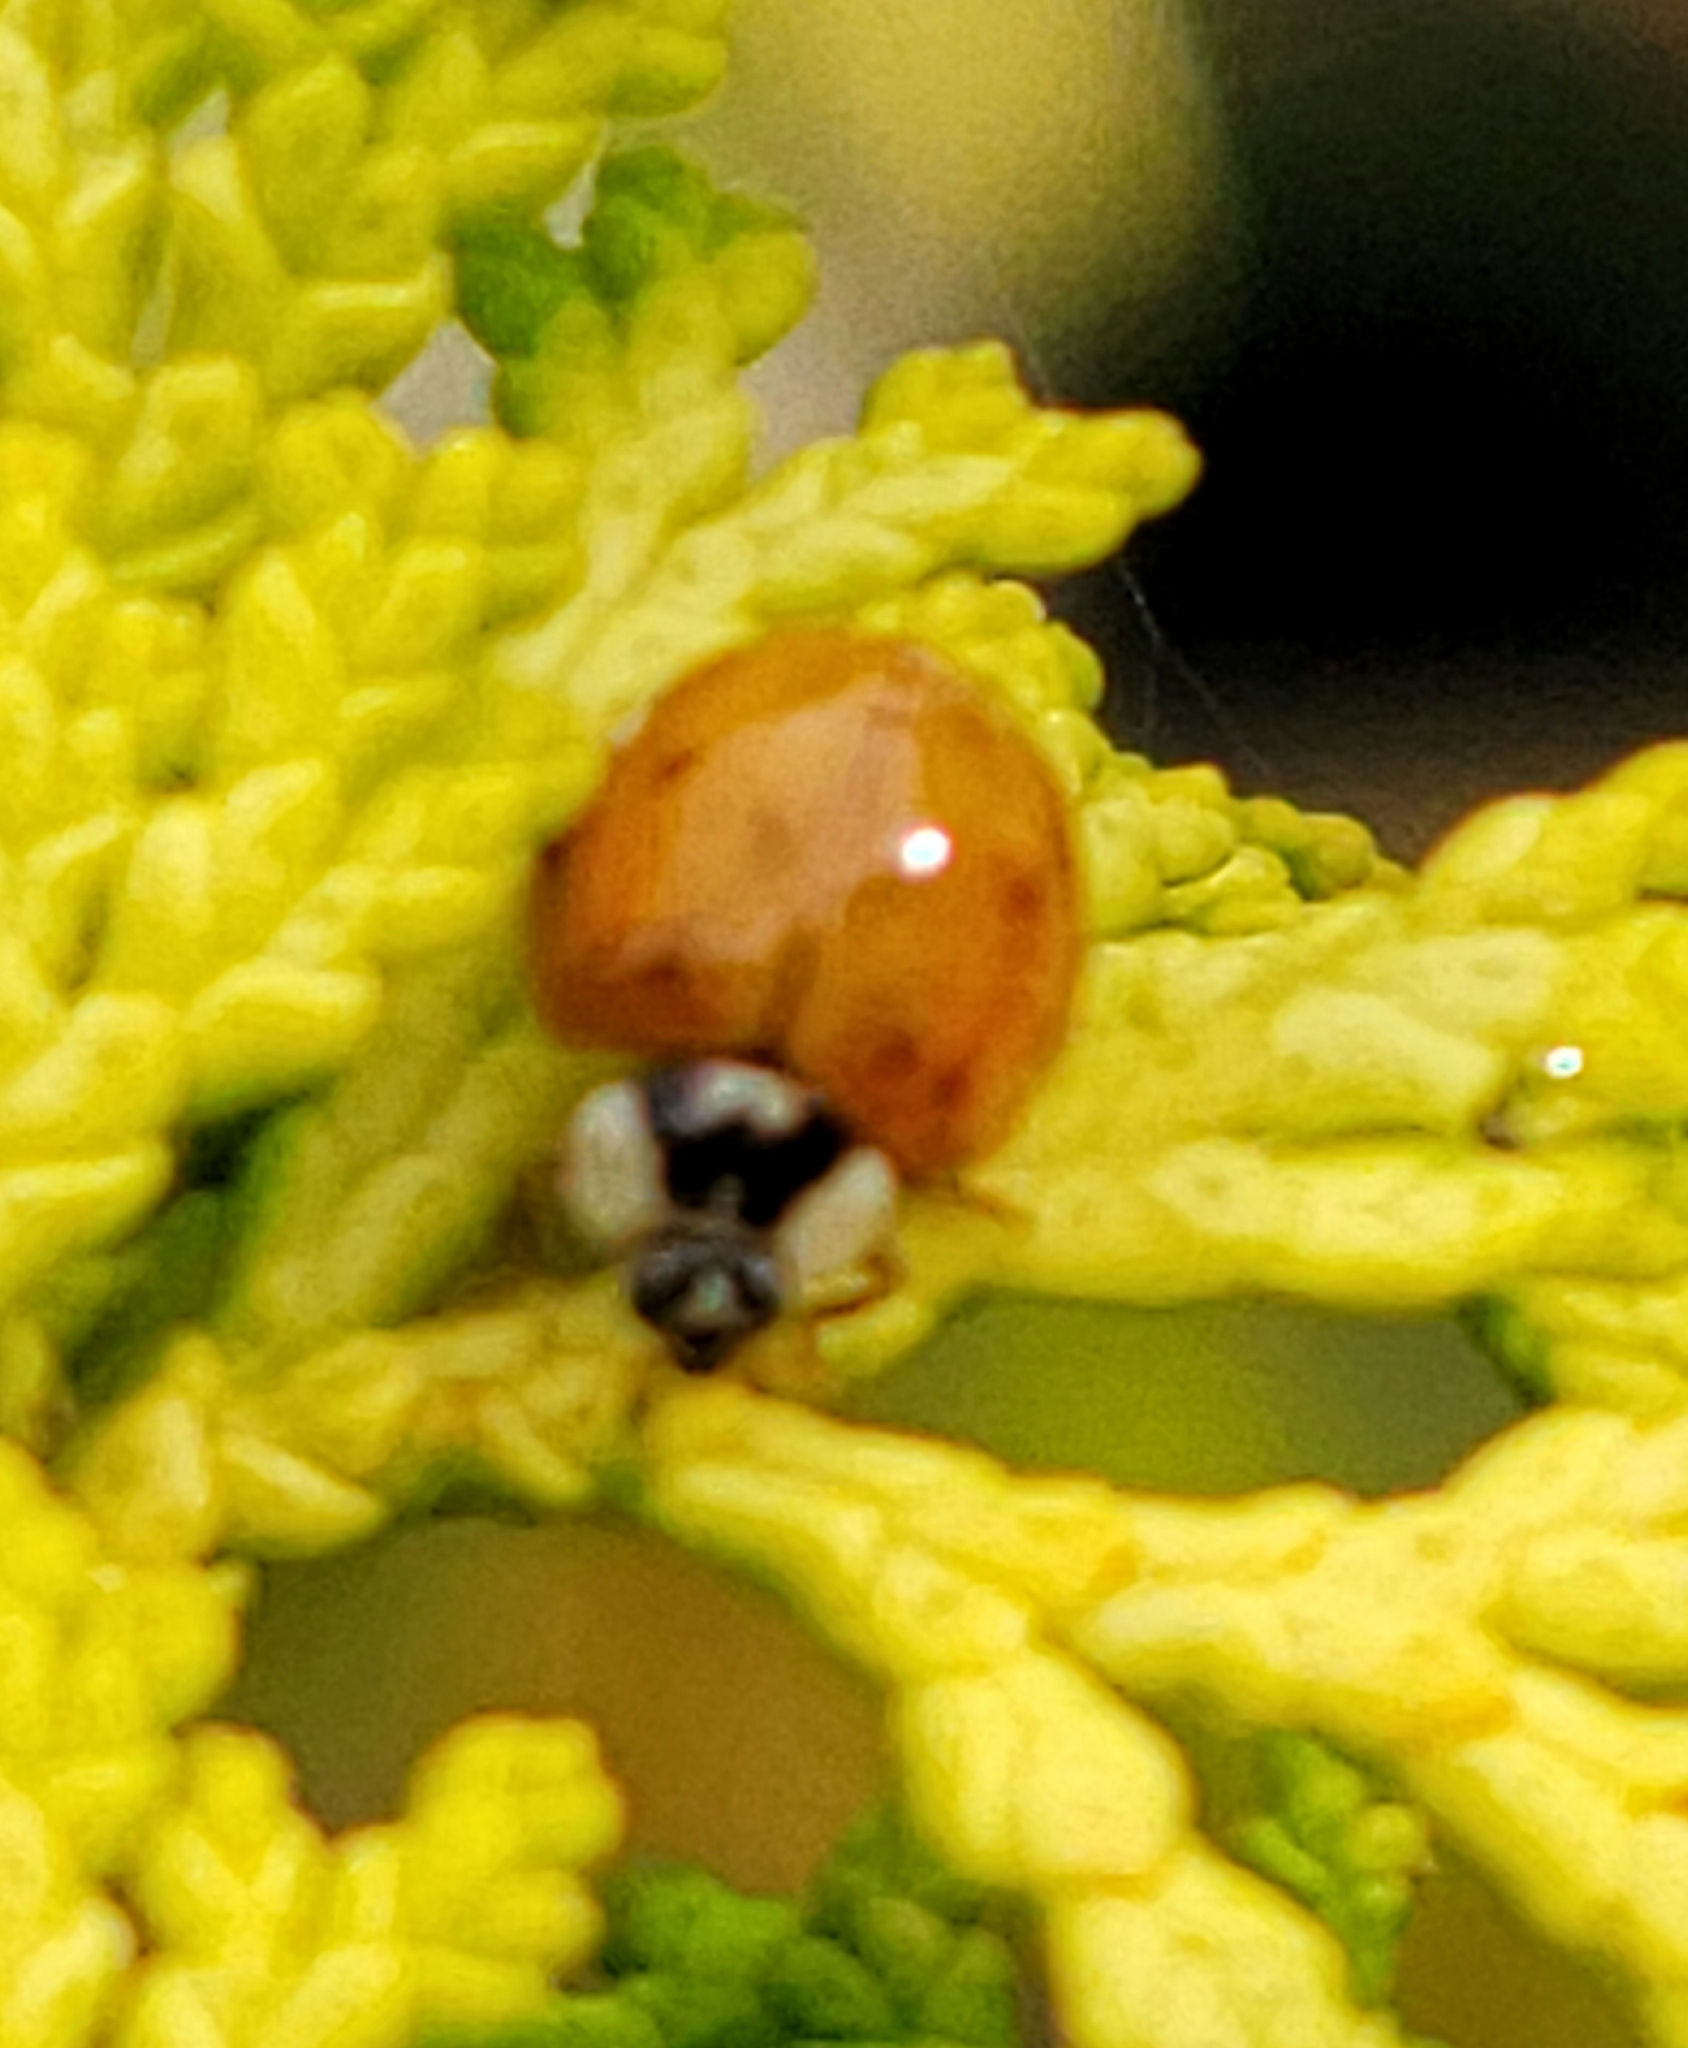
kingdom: Animalia
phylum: Arthropoda
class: Insecta
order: Coleoptera
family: Coccinellidae
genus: Harmonia
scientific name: Harmonia axyridis
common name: Harlequin ladybird
